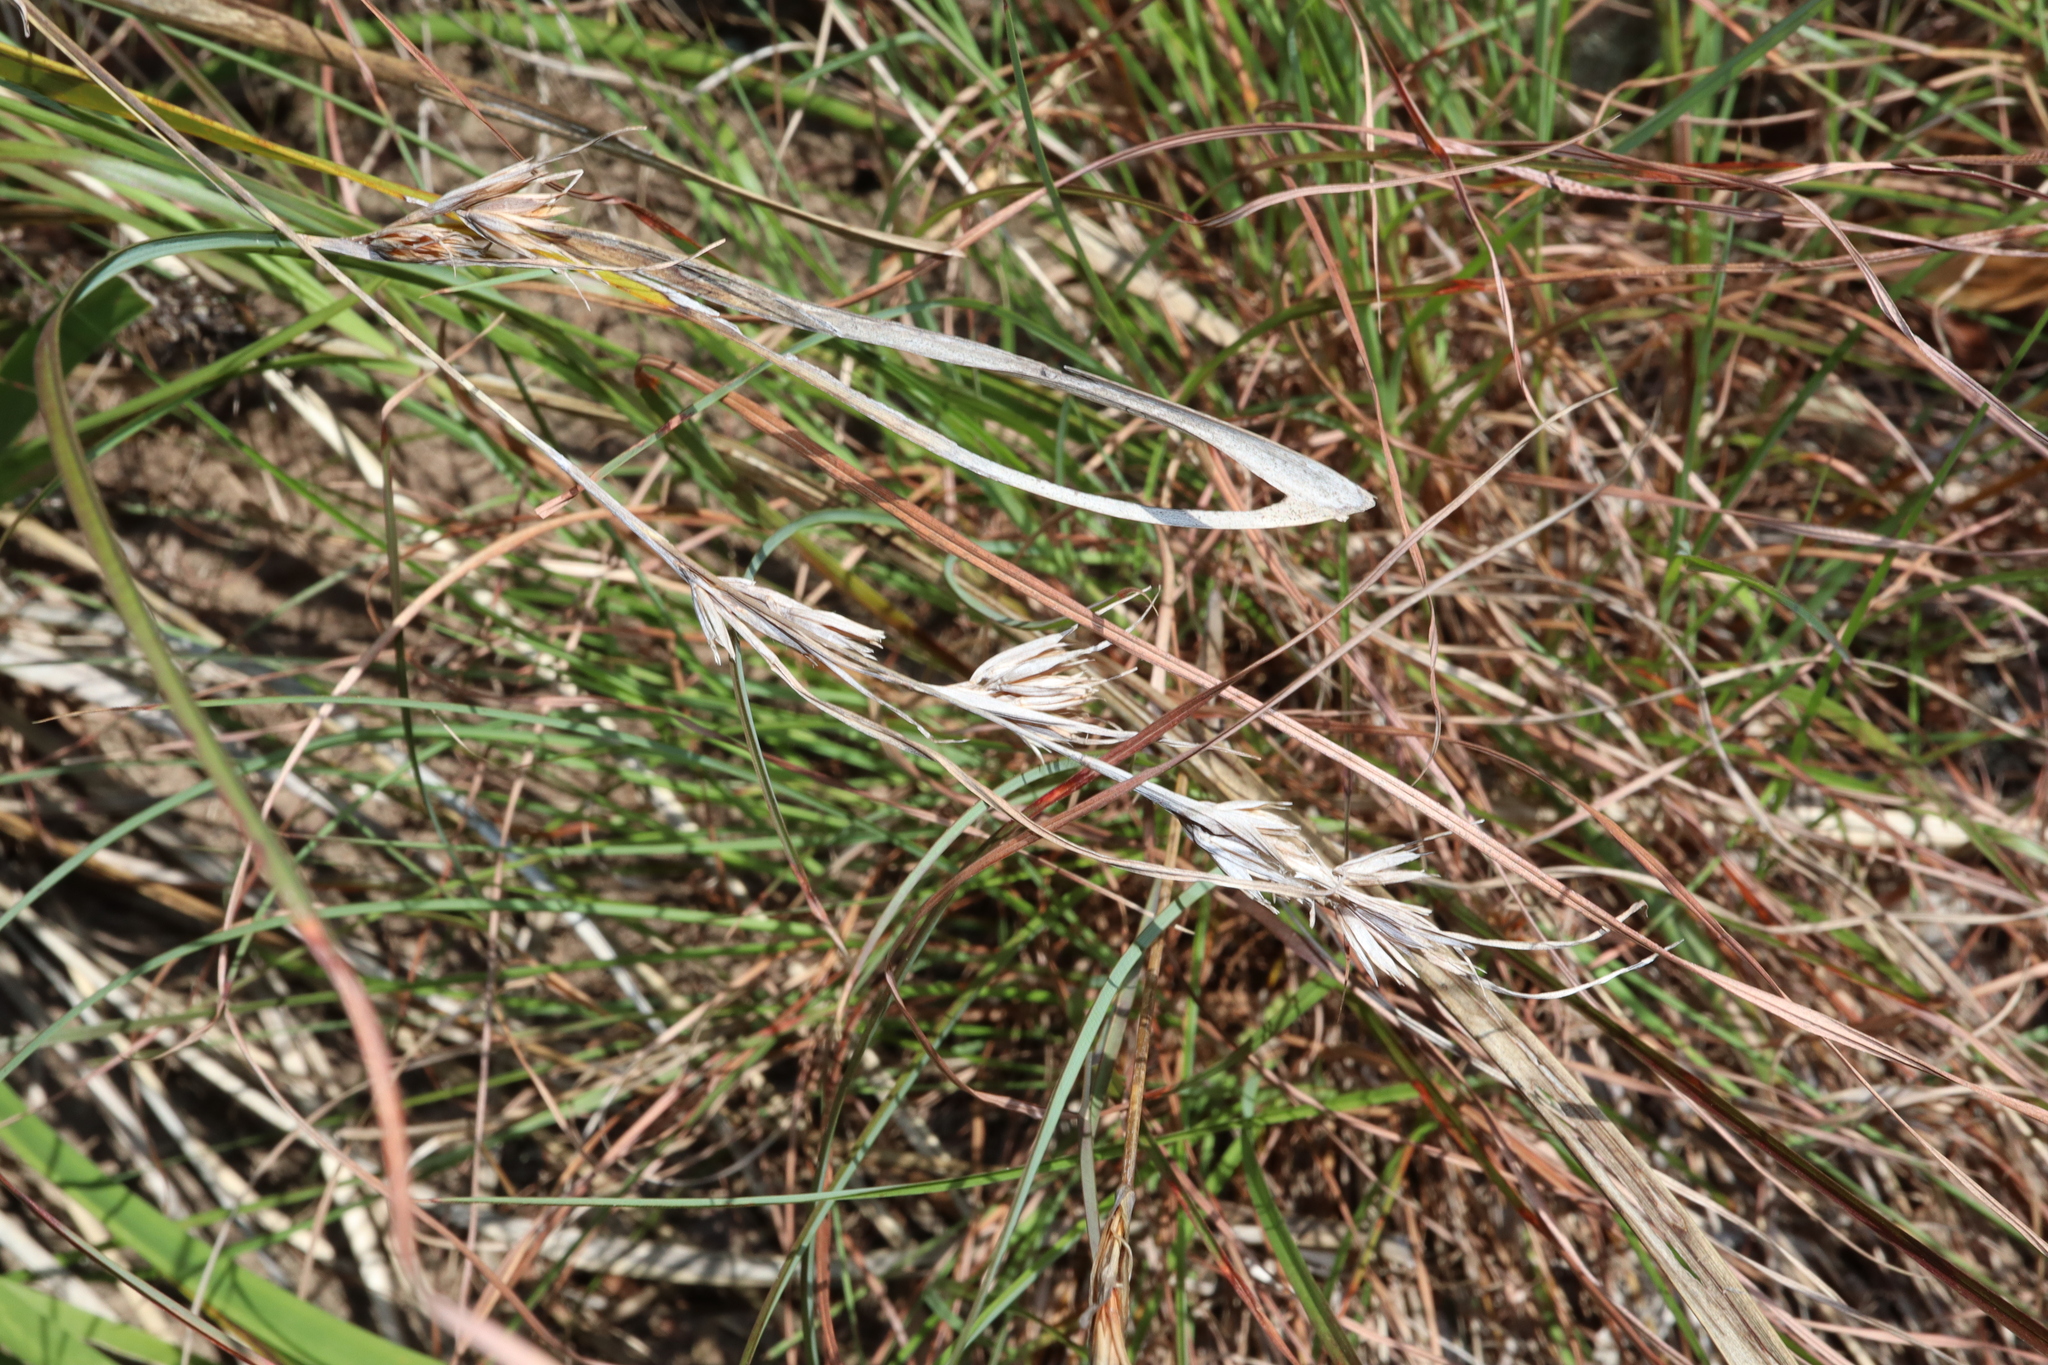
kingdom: Plantae
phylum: Tracheophyta
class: Liliopsida
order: Poales
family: Poaceae
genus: Themeda
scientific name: Themeda triandra
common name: Kangaroo grass
